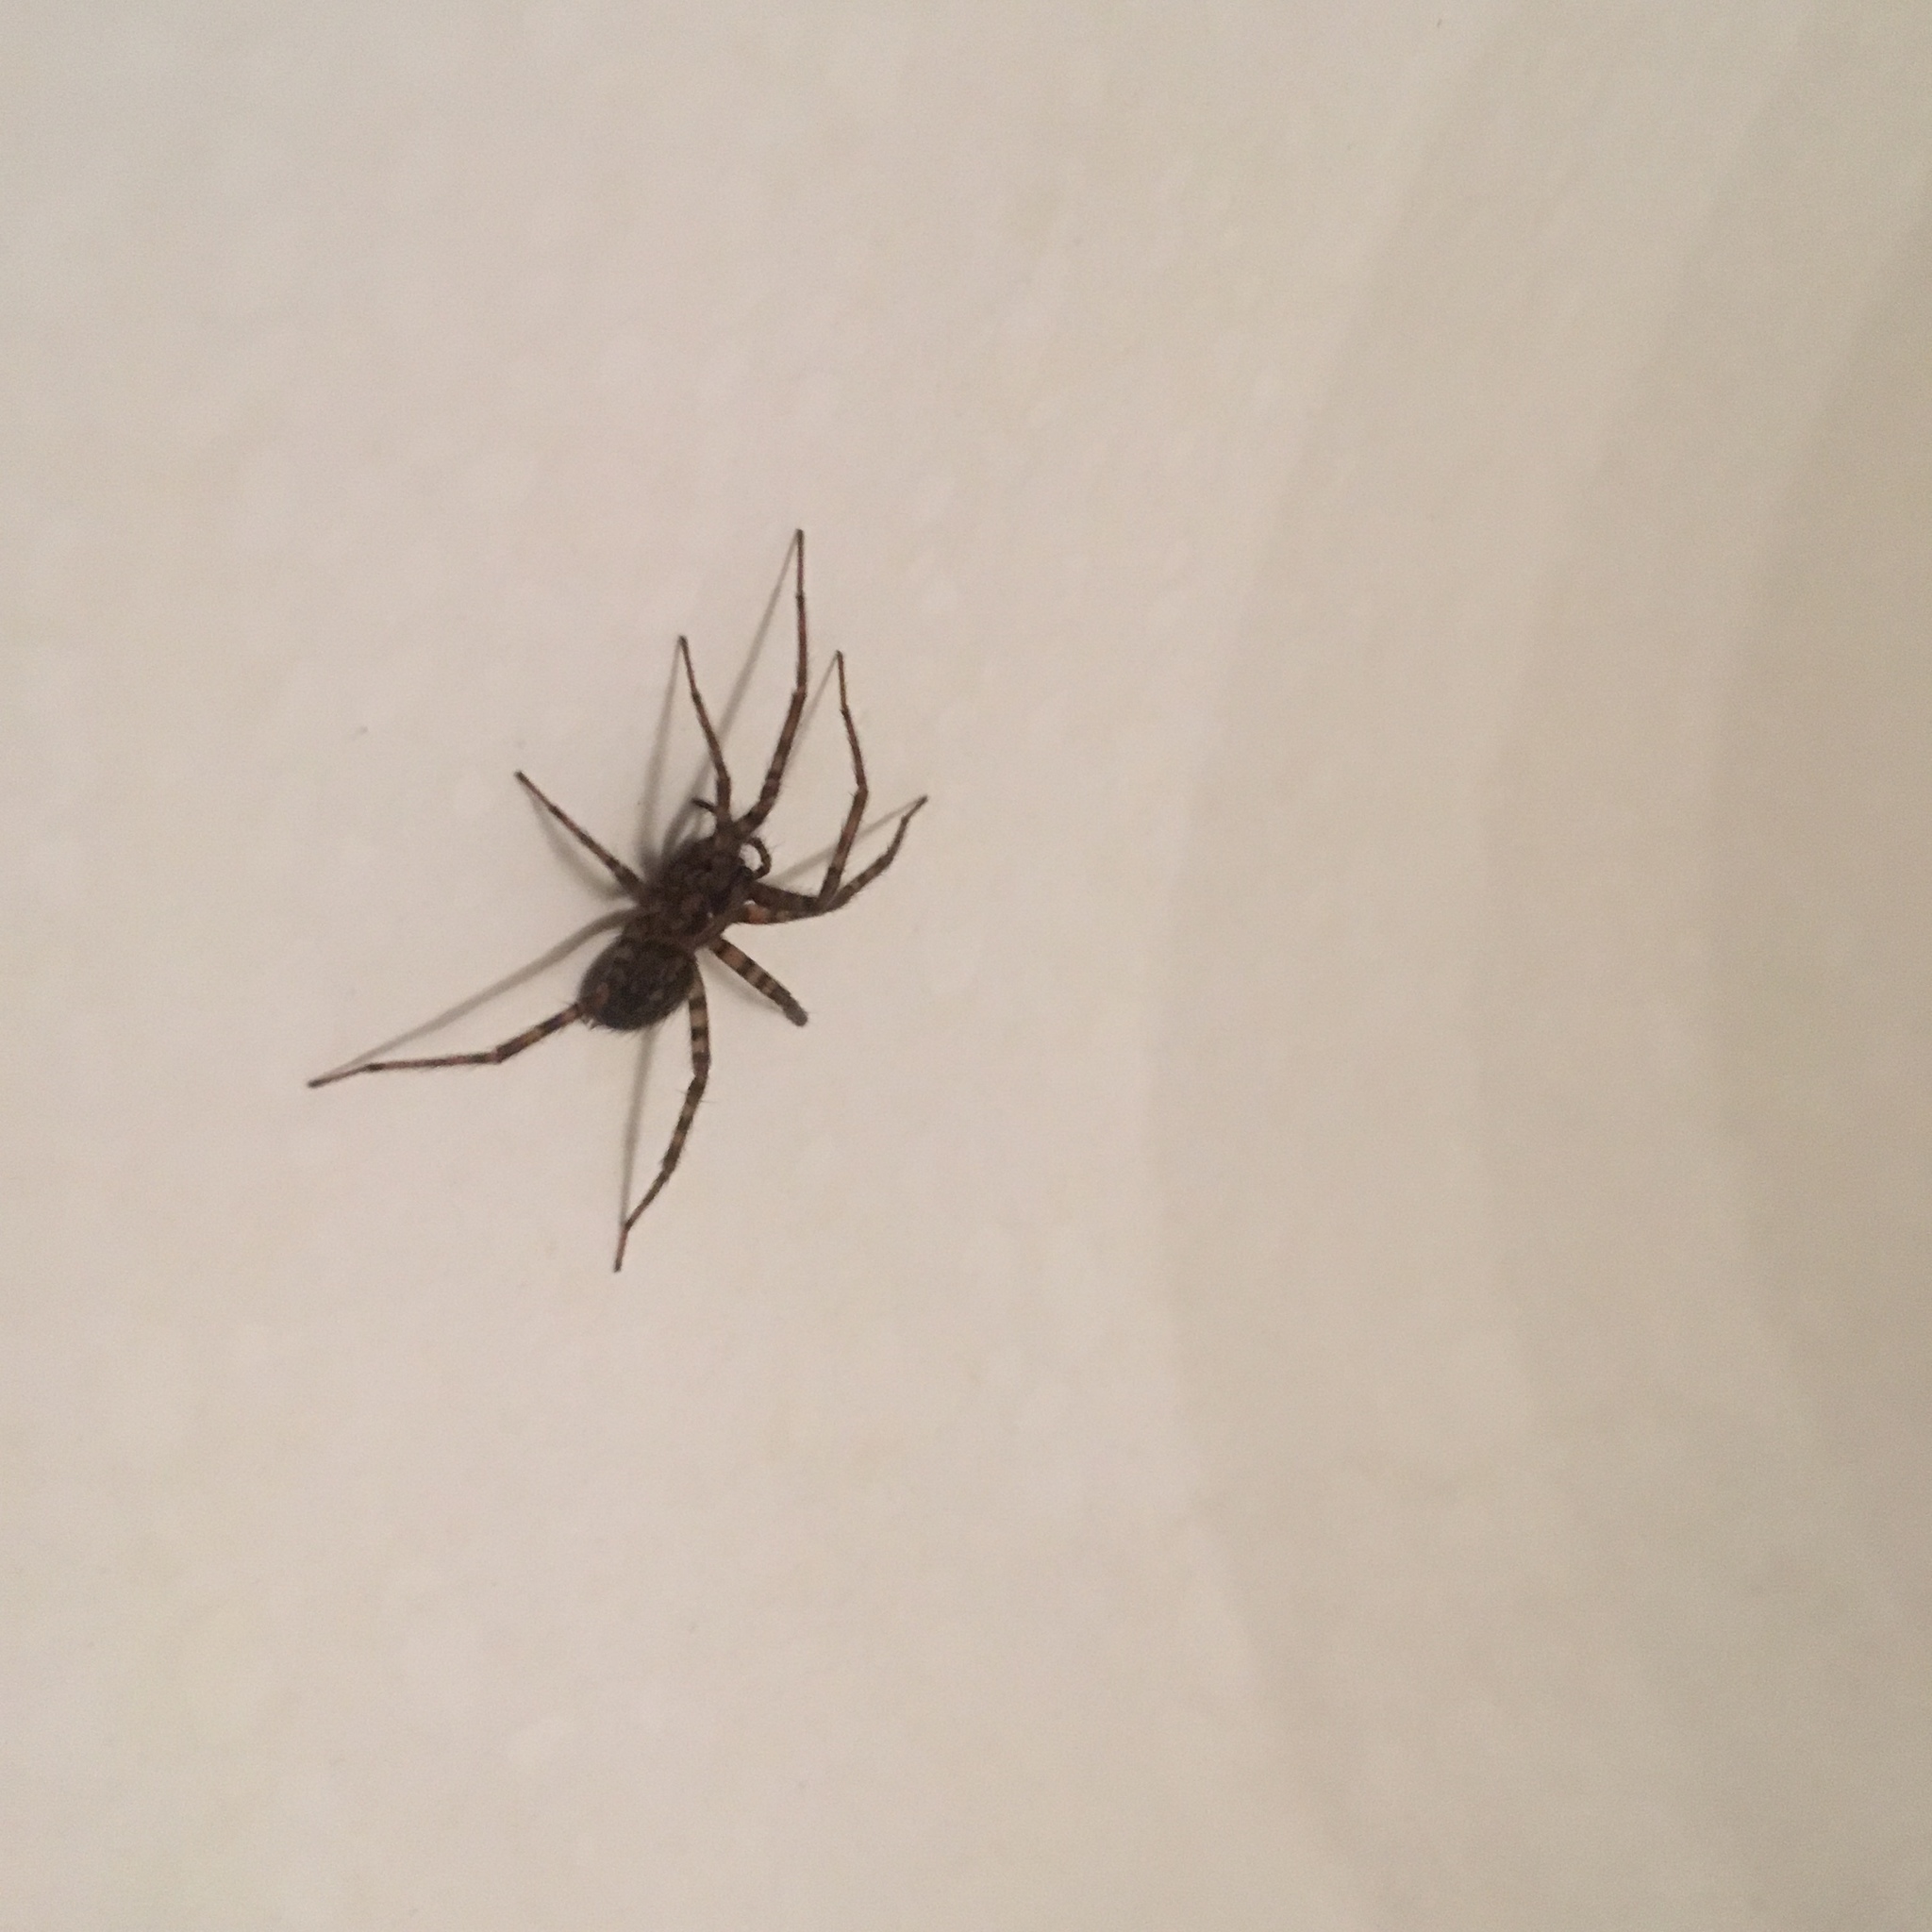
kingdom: Animalia
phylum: Arthropoda
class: Arachnida
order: Araneae
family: Agelenidae
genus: Tegenaria
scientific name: Tegenaria domestica
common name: Barn funnel weaver
